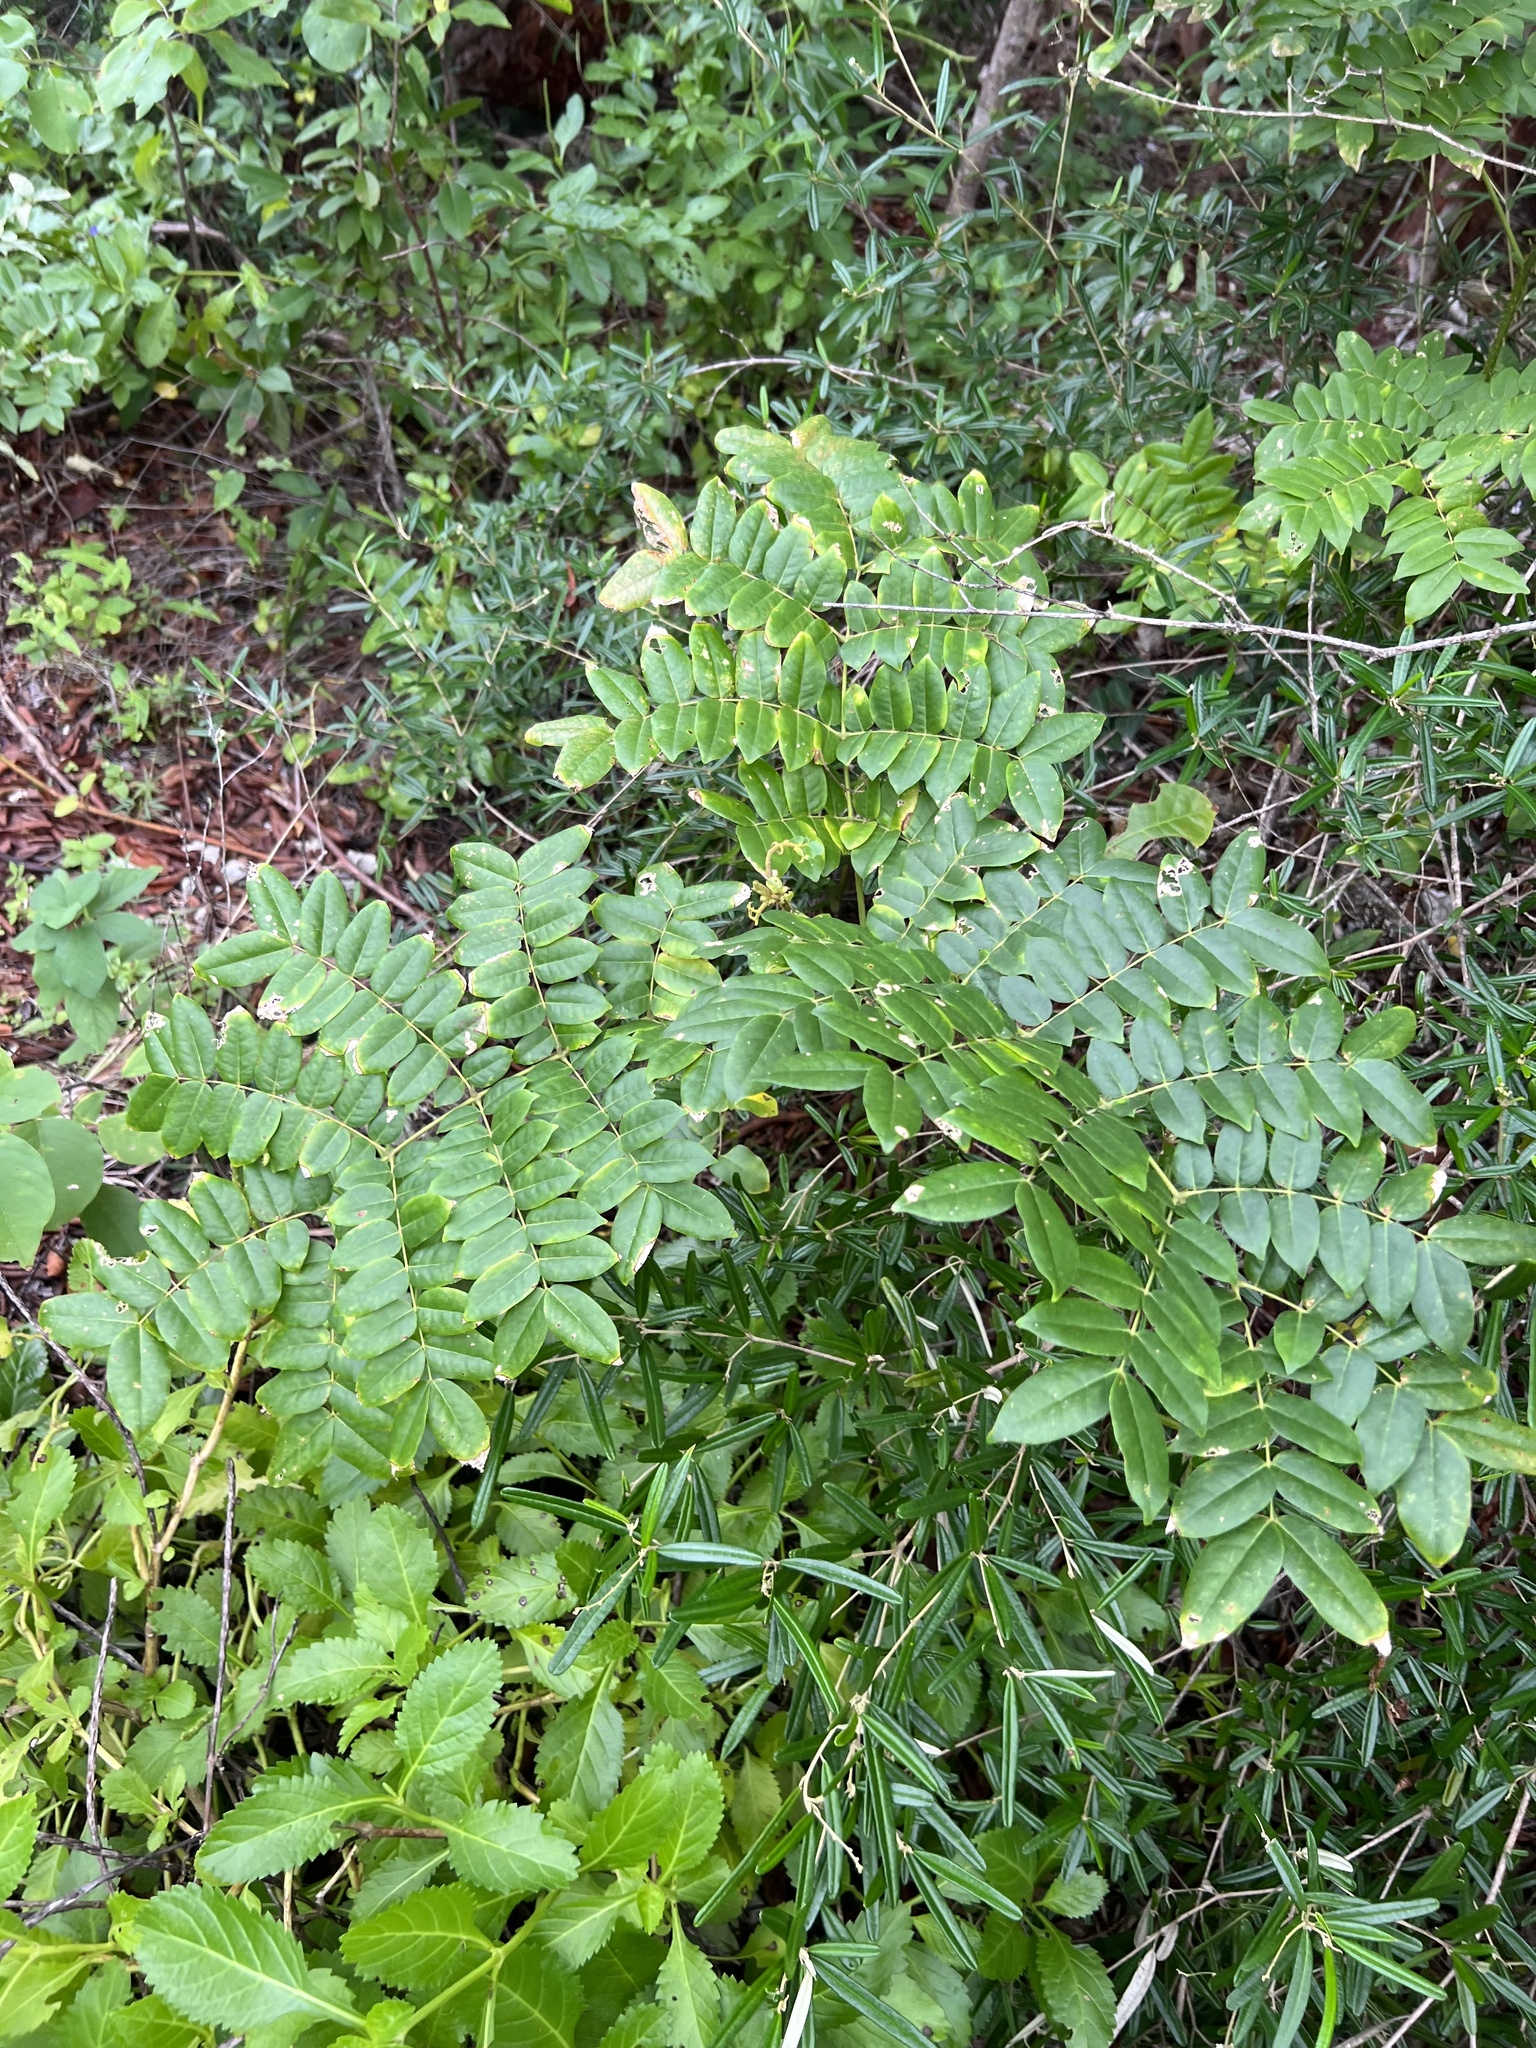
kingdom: Plantae
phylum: Tracheophyta
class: Magnoliopsida
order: Fabales
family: Fabaceae
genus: Guilandina
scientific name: Guilandina bonduc
